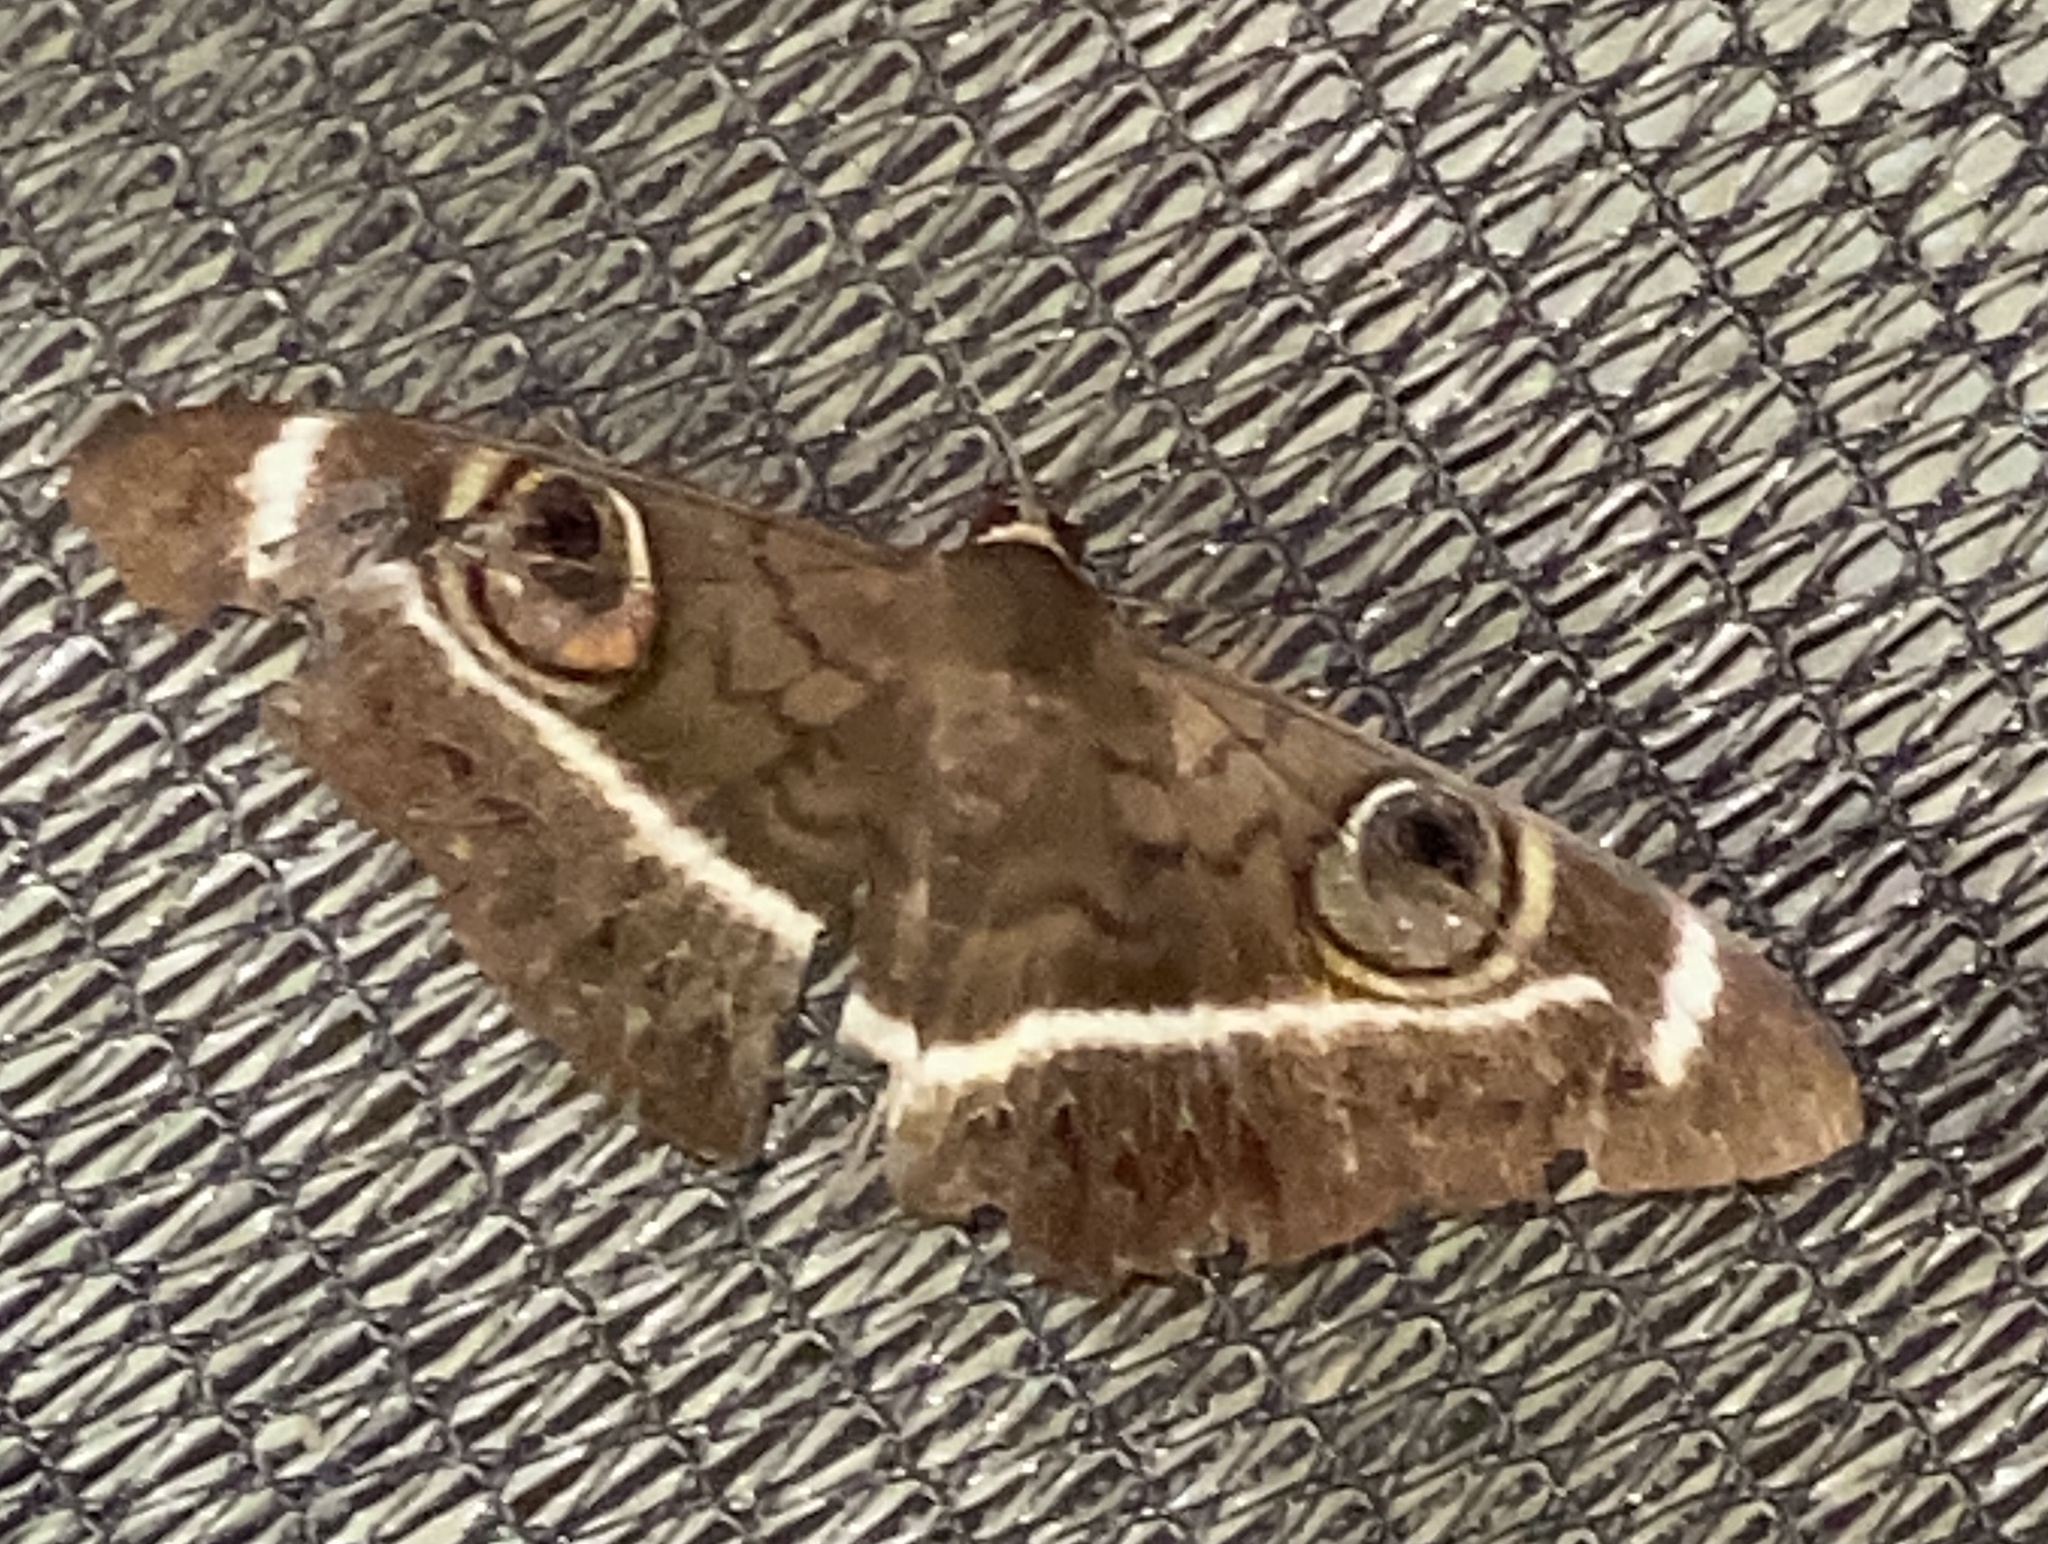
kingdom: Animalia
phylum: Arthropoda
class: Insecta
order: Lepidoptera
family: Erebidae
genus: Cyligramma
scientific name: Cyligramma latona
